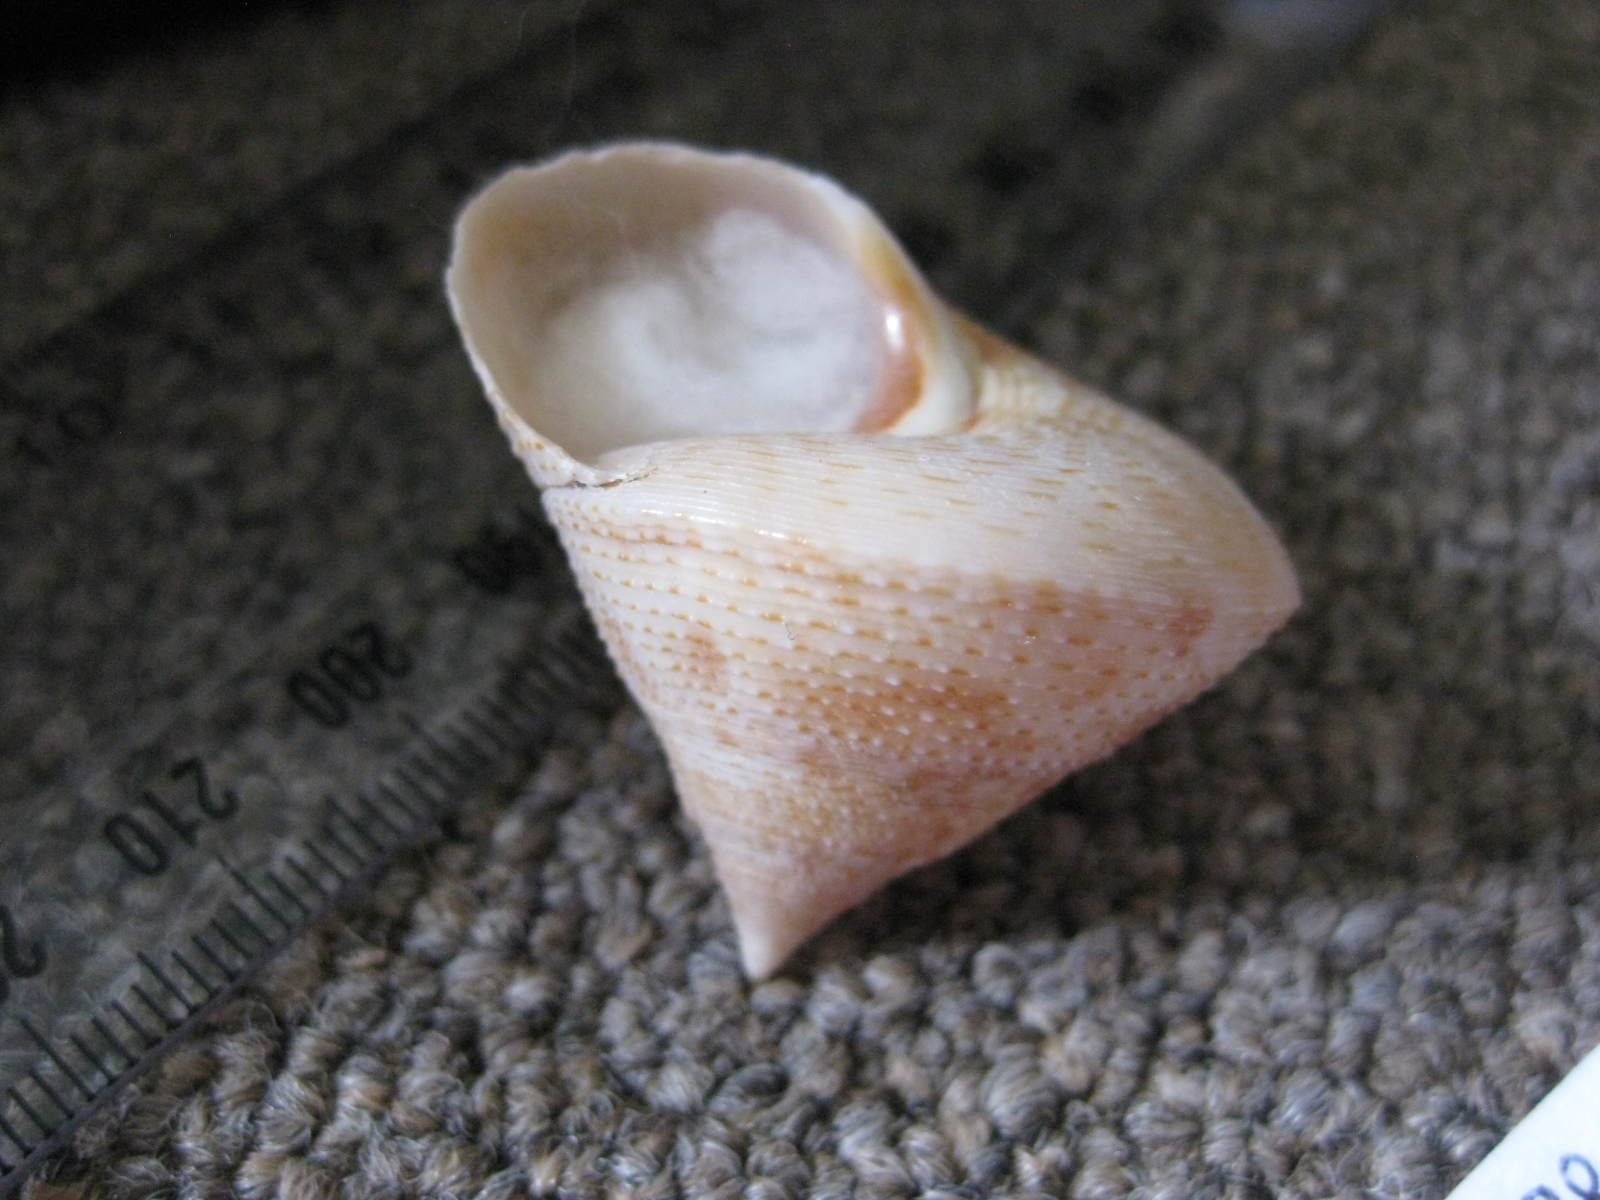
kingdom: Animalia
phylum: Mollusca
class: Gastropoda
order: Trochida
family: Calliostomatidae
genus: Maurea
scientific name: Maurea waikanae
